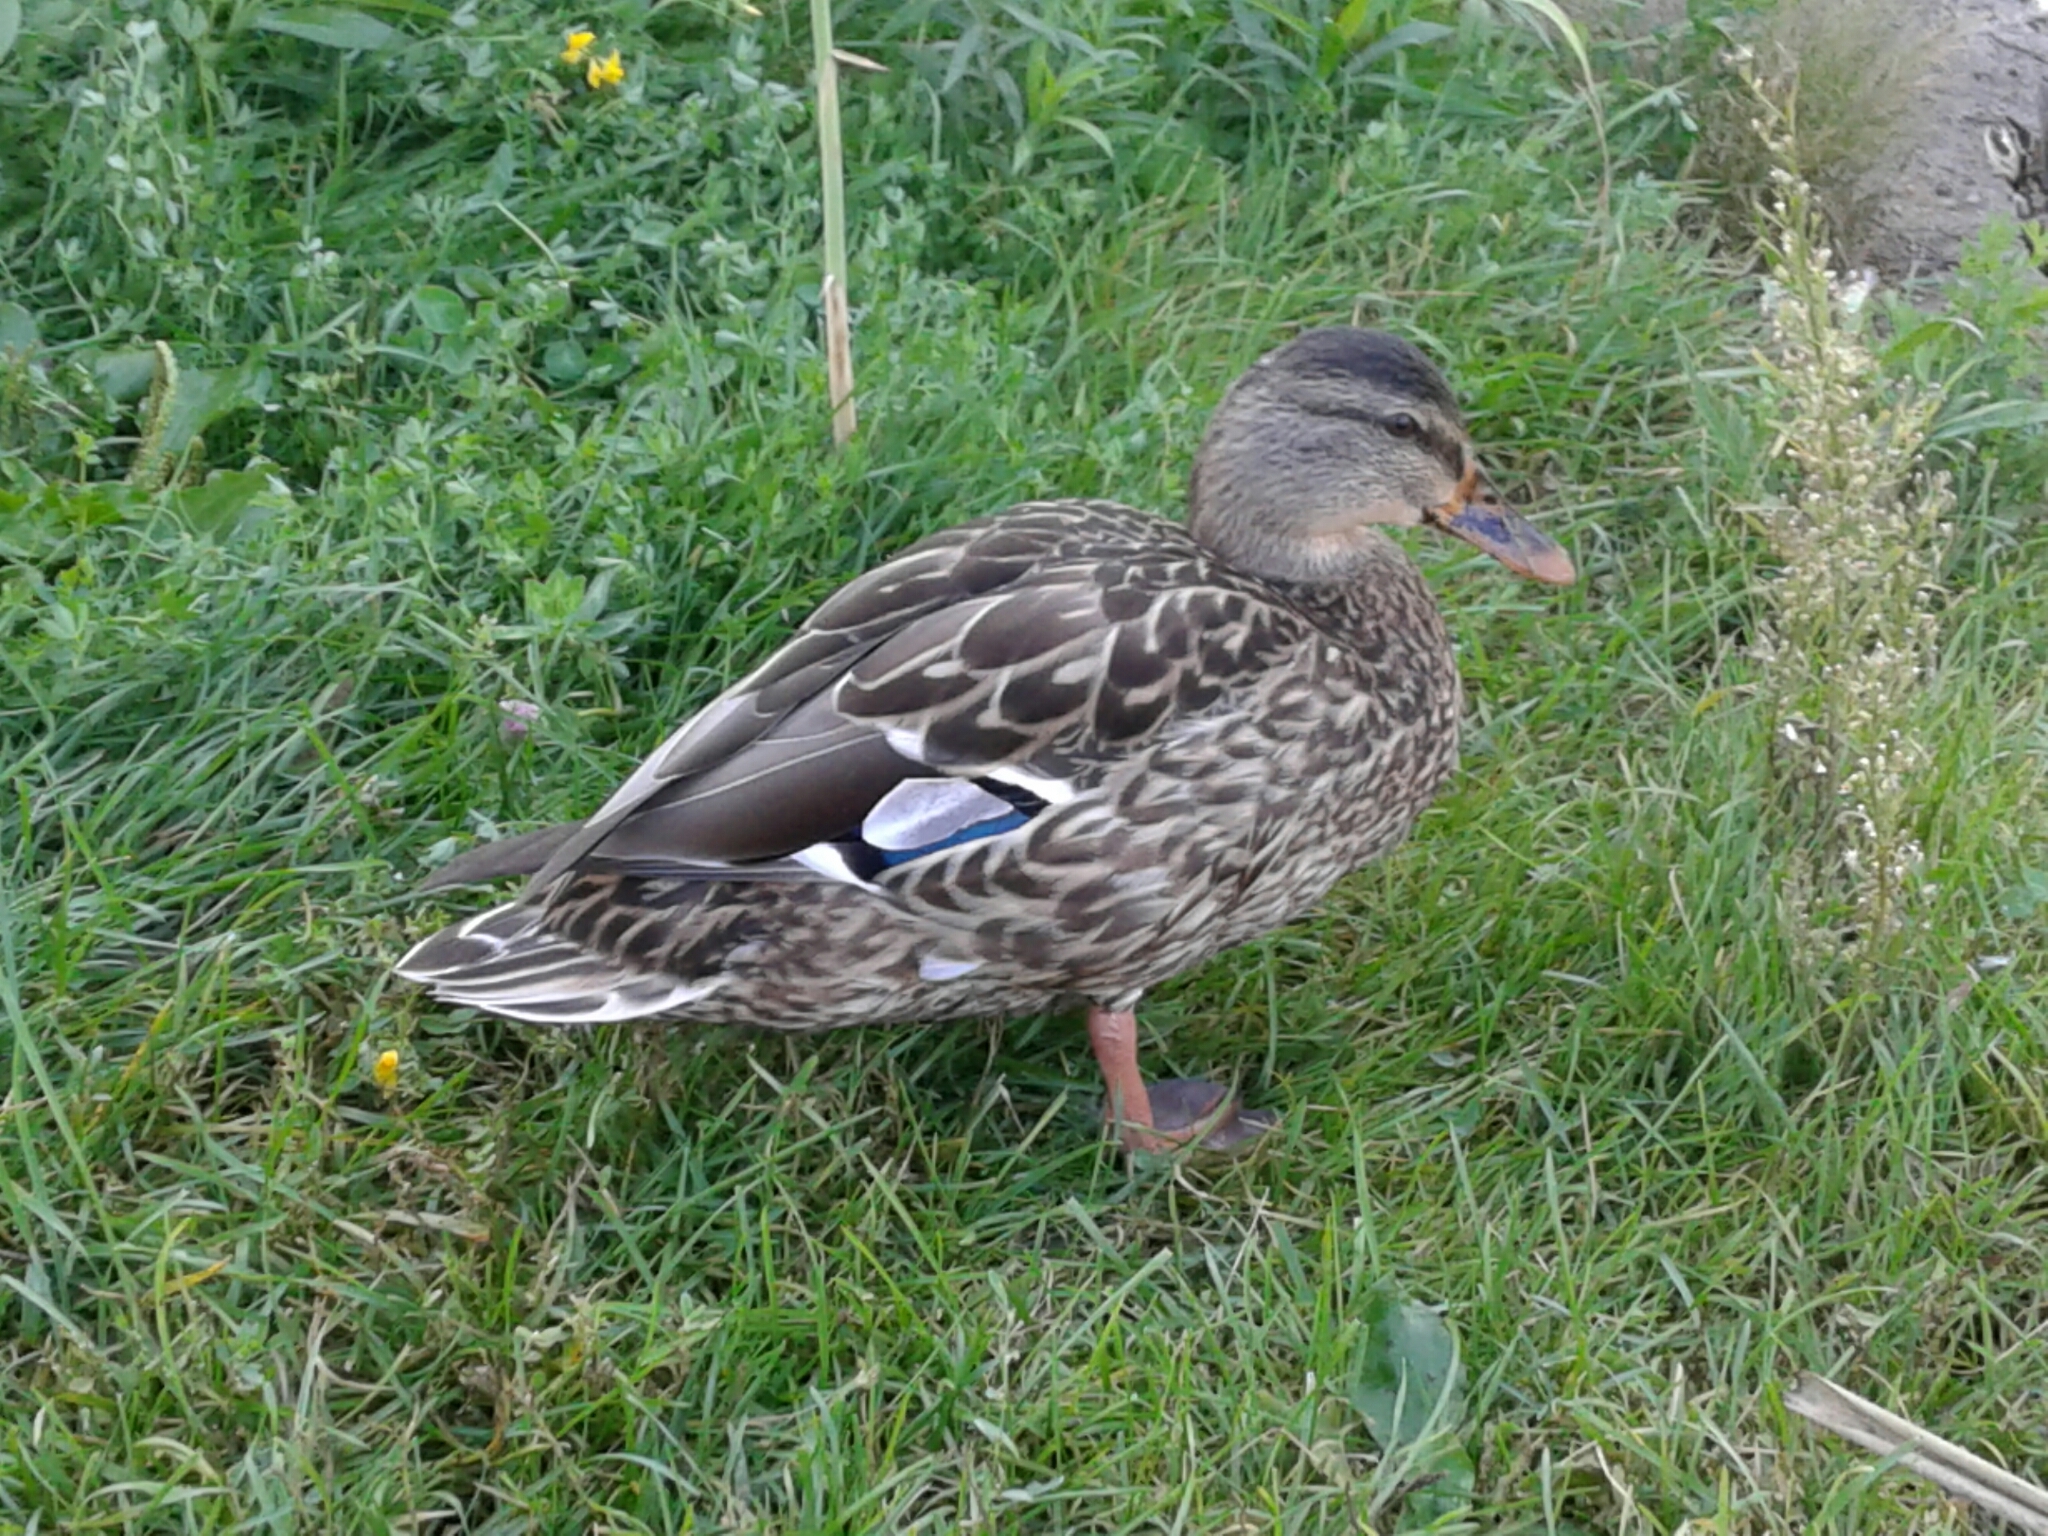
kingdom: Animalia
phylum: Chordata
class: Aves
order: Anseriformes
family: Anatidae
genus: Anas
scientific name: Anas platyrhynchos
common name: Mallard
